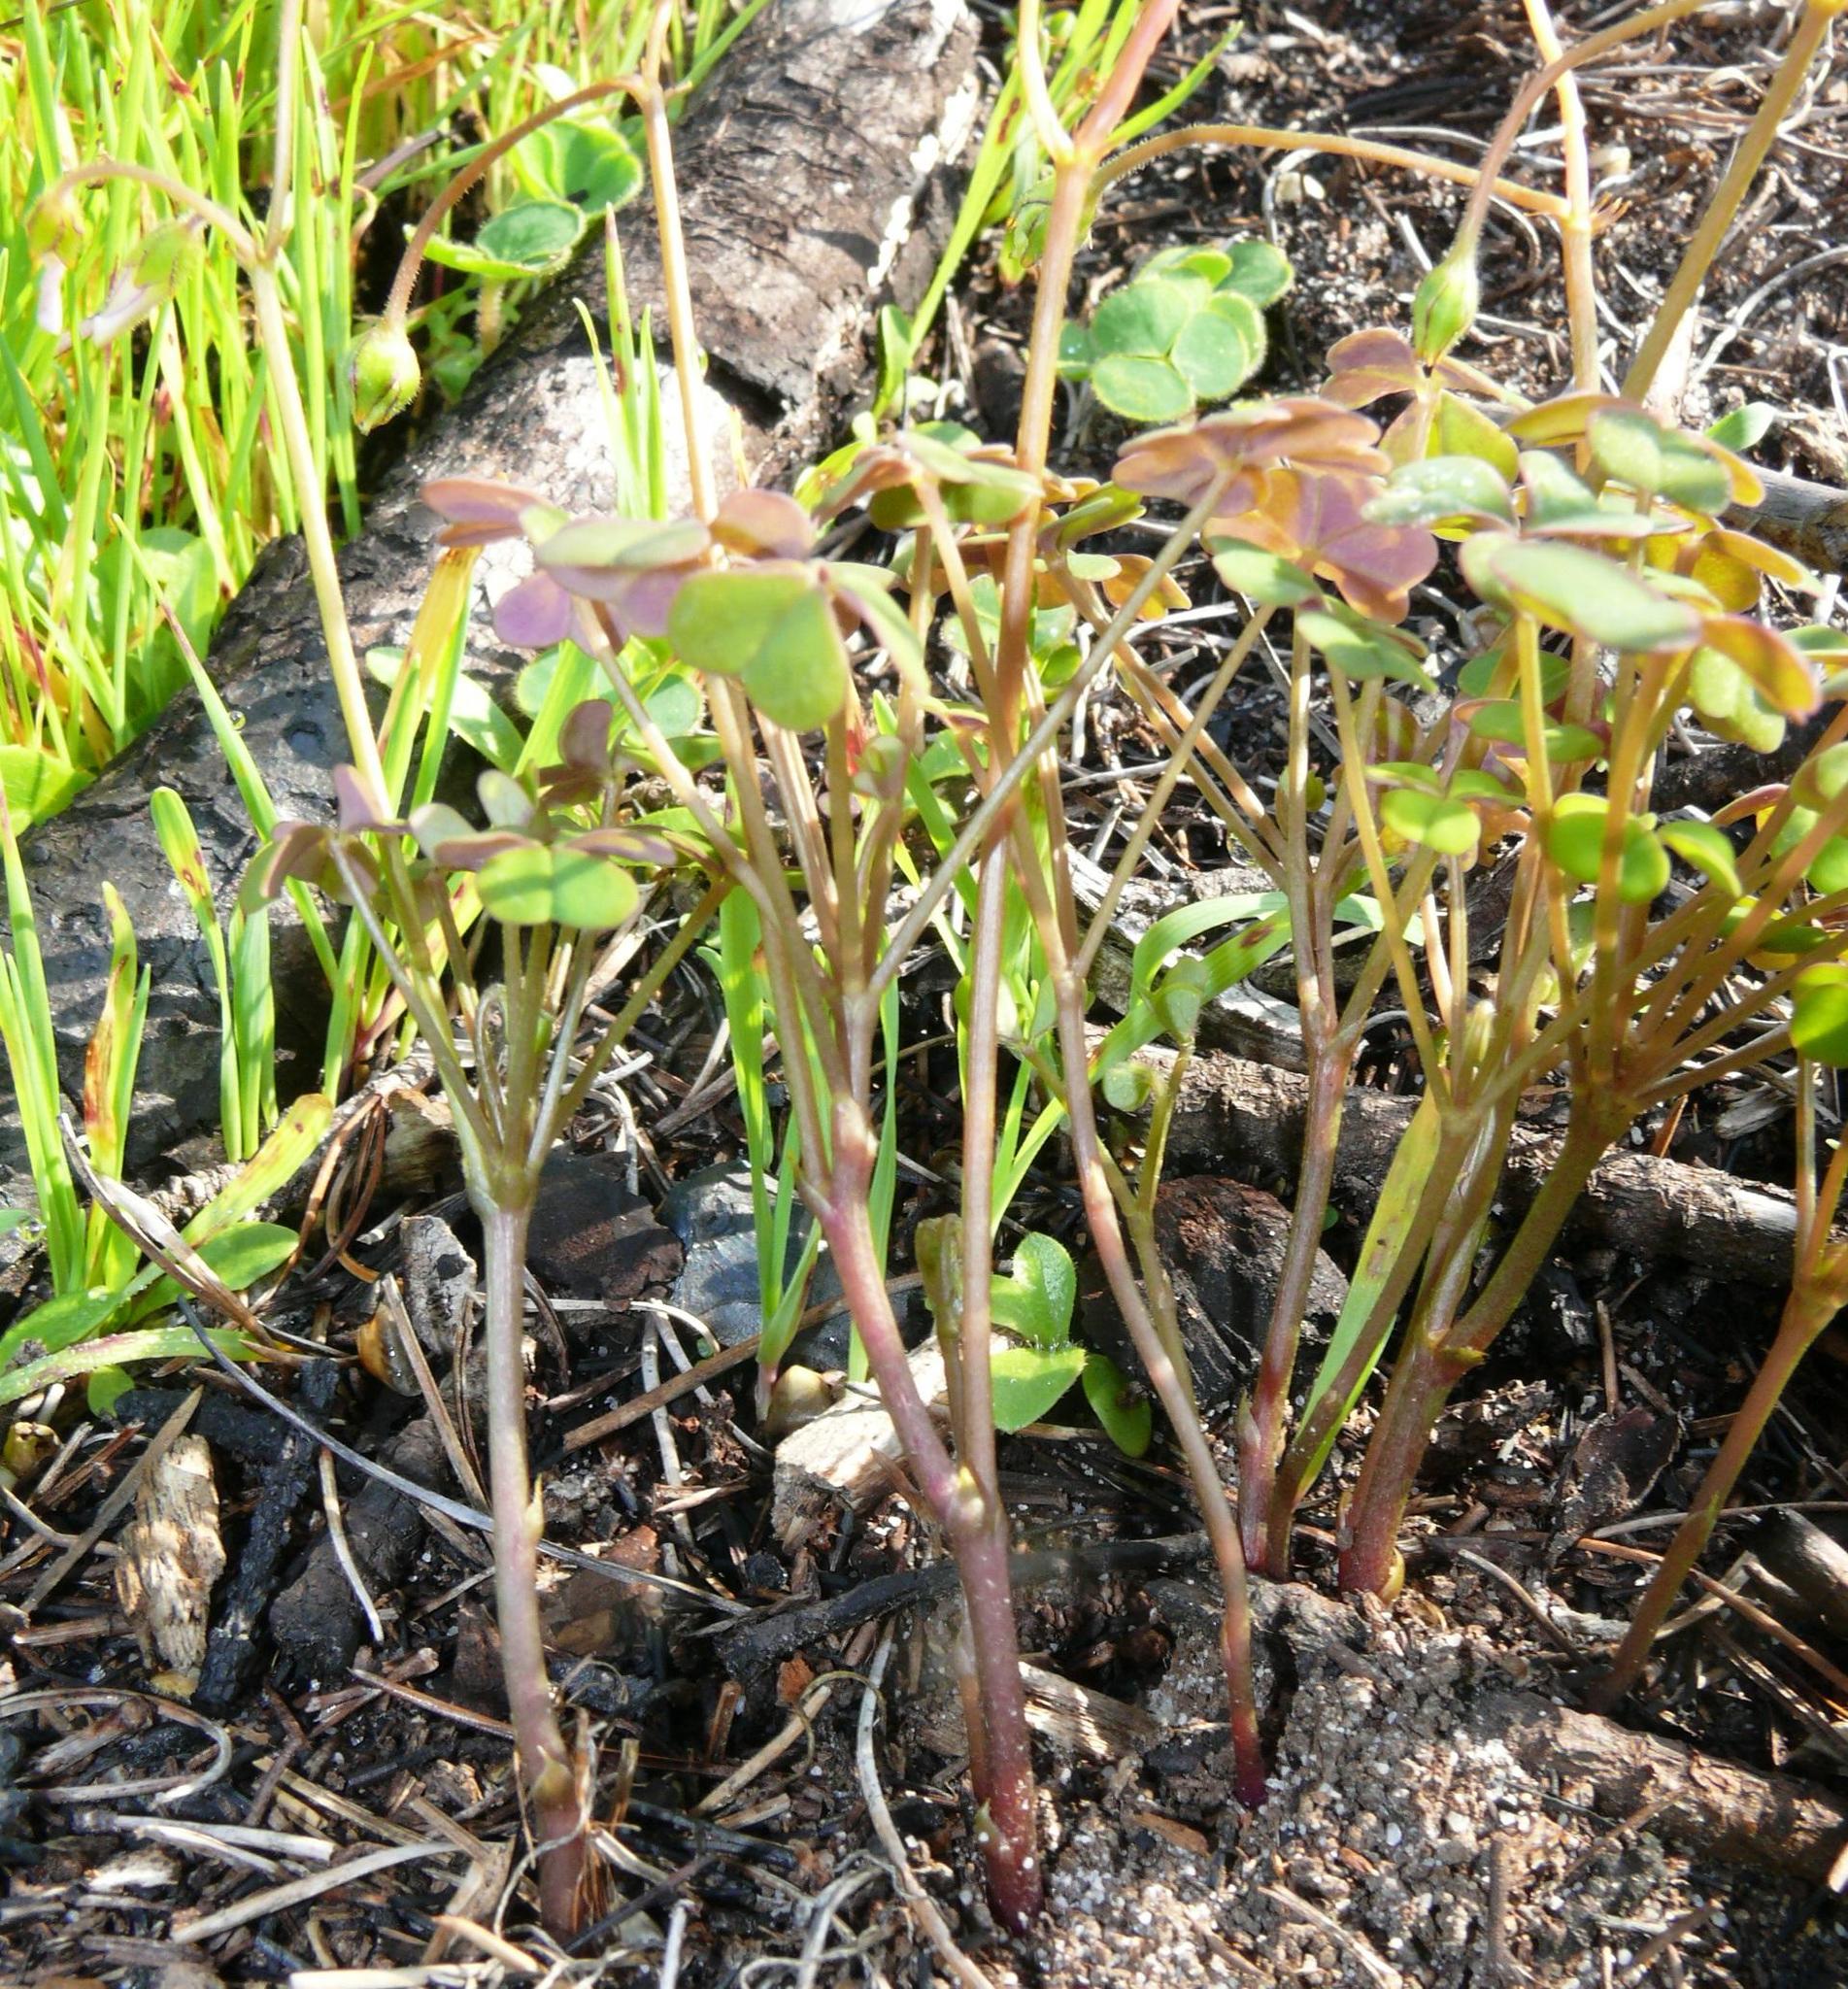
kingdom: Plantae
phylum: Tracheophyta
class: Magnoliopsida
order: Oxalidales
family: Oxalidaceae
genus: Oxalis
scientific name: Oxalis
